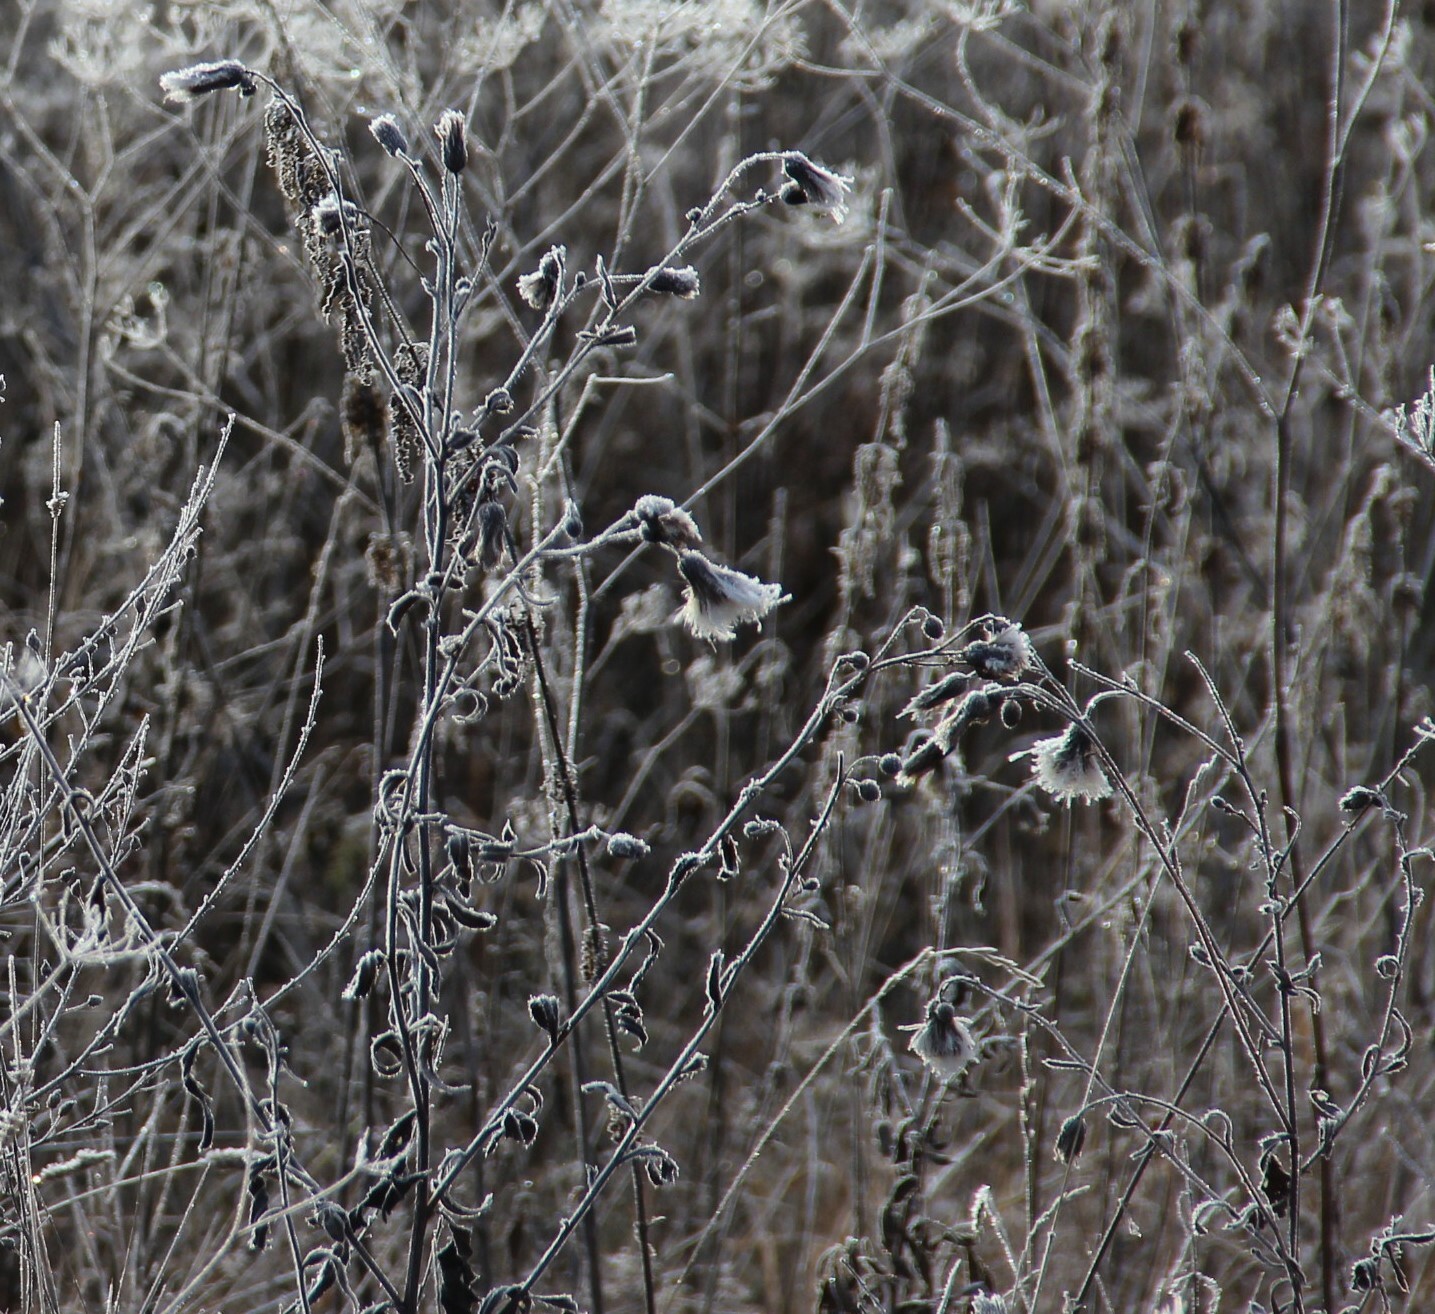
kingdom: Plantae
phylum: Tracheophyta
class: Magnoliopsida
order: Asterales
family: Asteraceae
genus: Cirsium
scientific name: Cirsium arvense
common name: Creeping thistle
